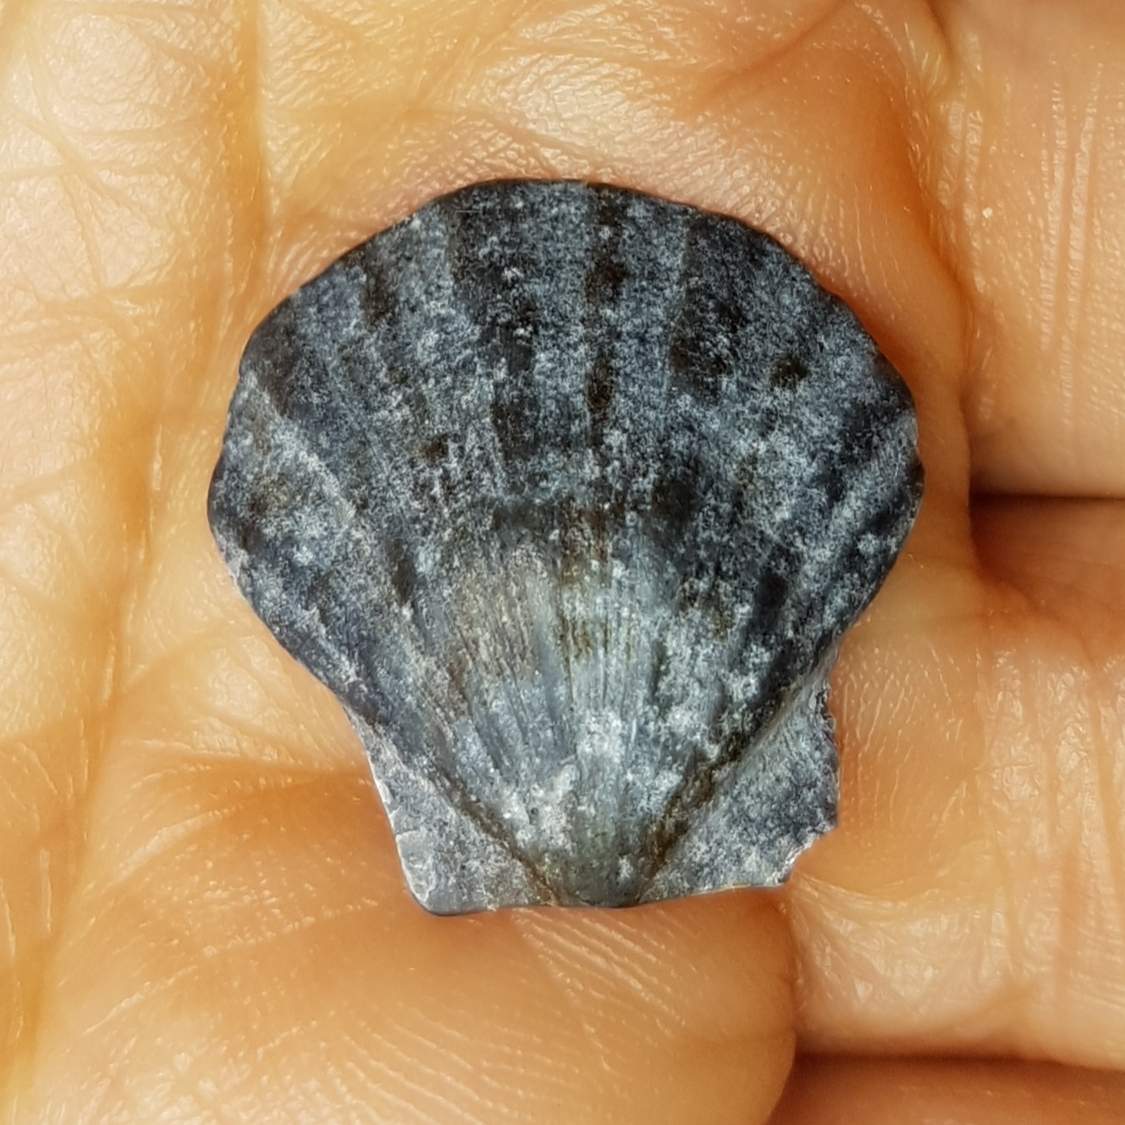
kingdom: Animalia
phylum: Mollusca
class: Bivalvia
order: Pectinida
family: Pectinidae
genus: Flexopecten
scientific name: Flexopecten glaber
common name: Smooth scallop
